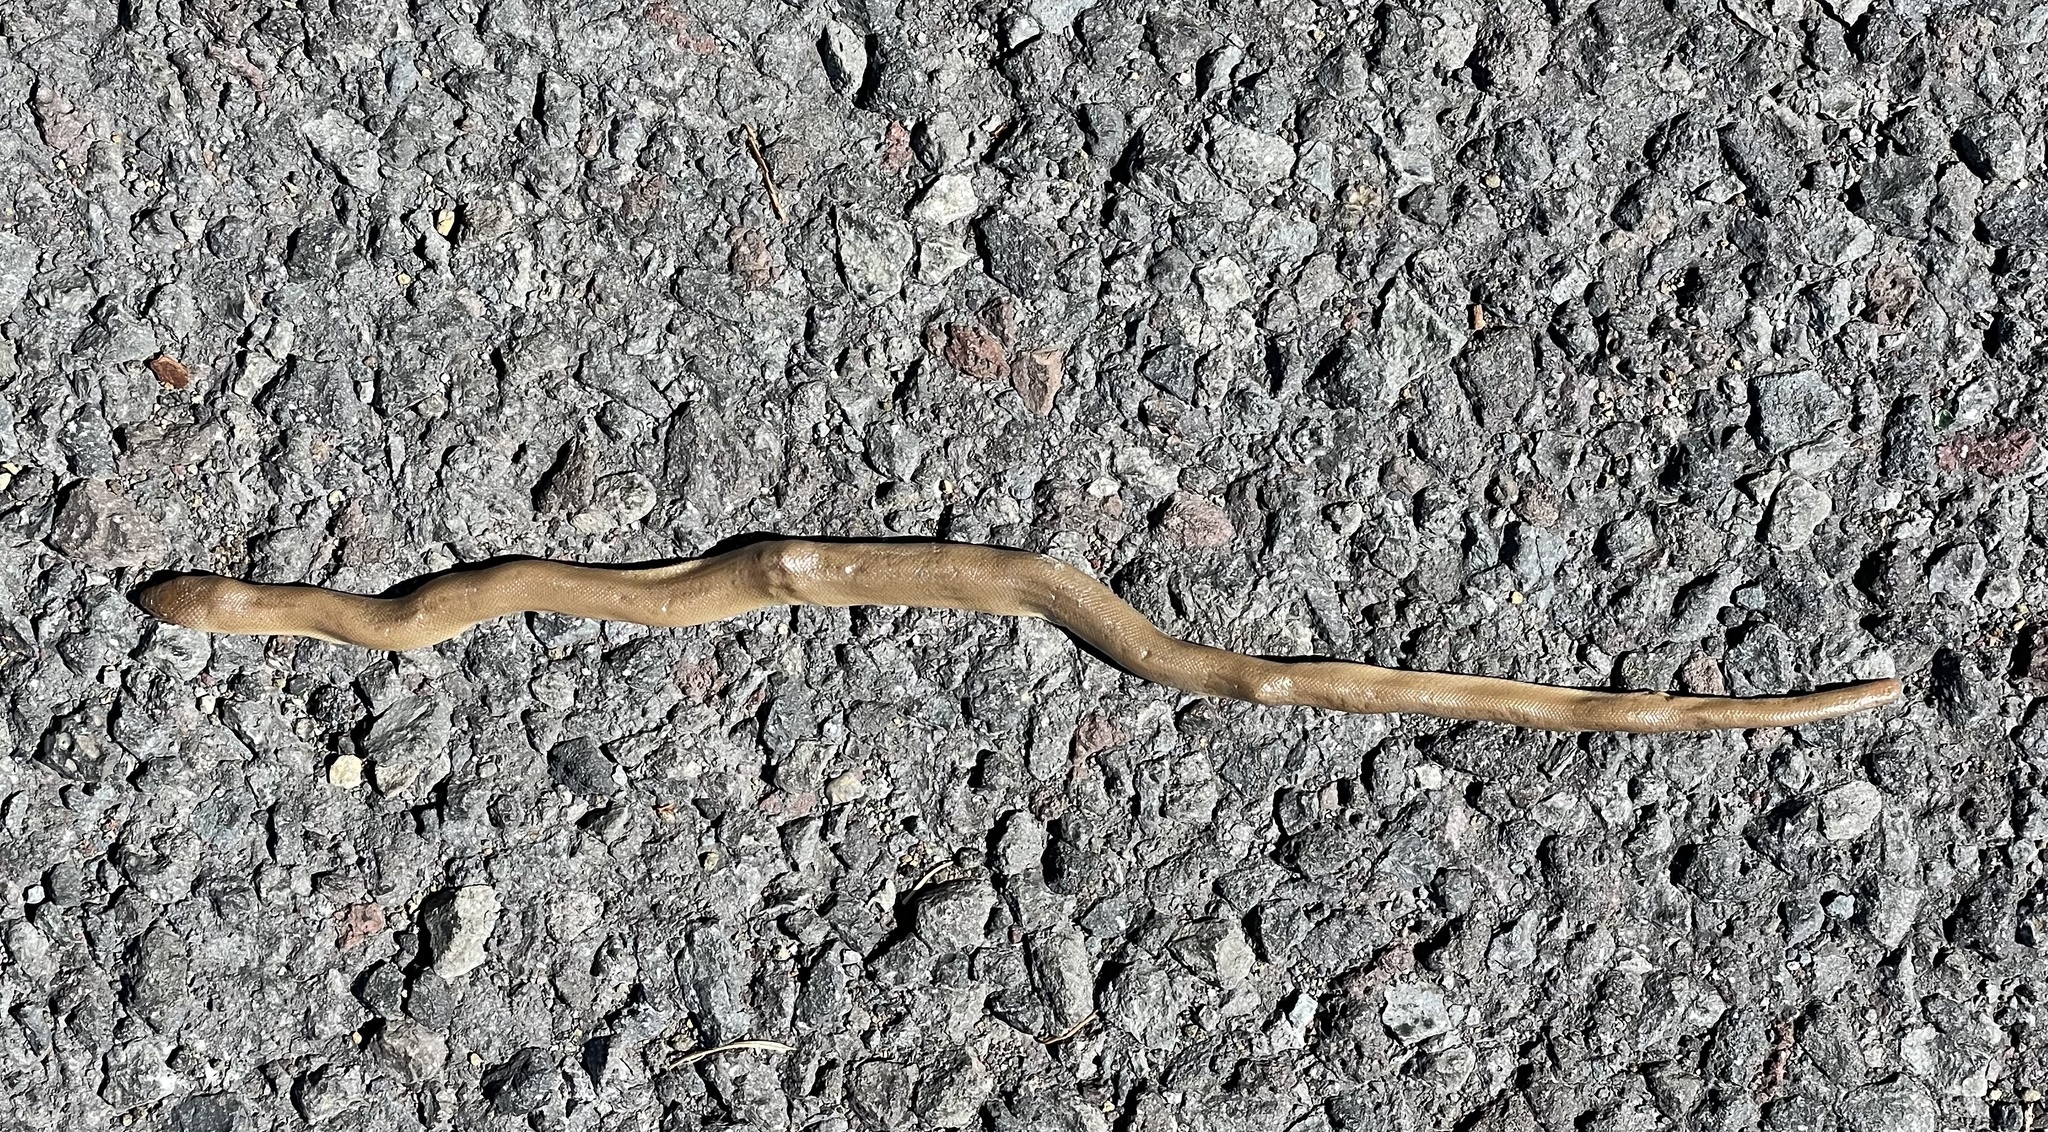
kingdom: Animalia
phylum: Chordata
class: Squamata
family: Boidae
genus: Charina
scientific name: Charina bottae
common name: Northern rubber boa
